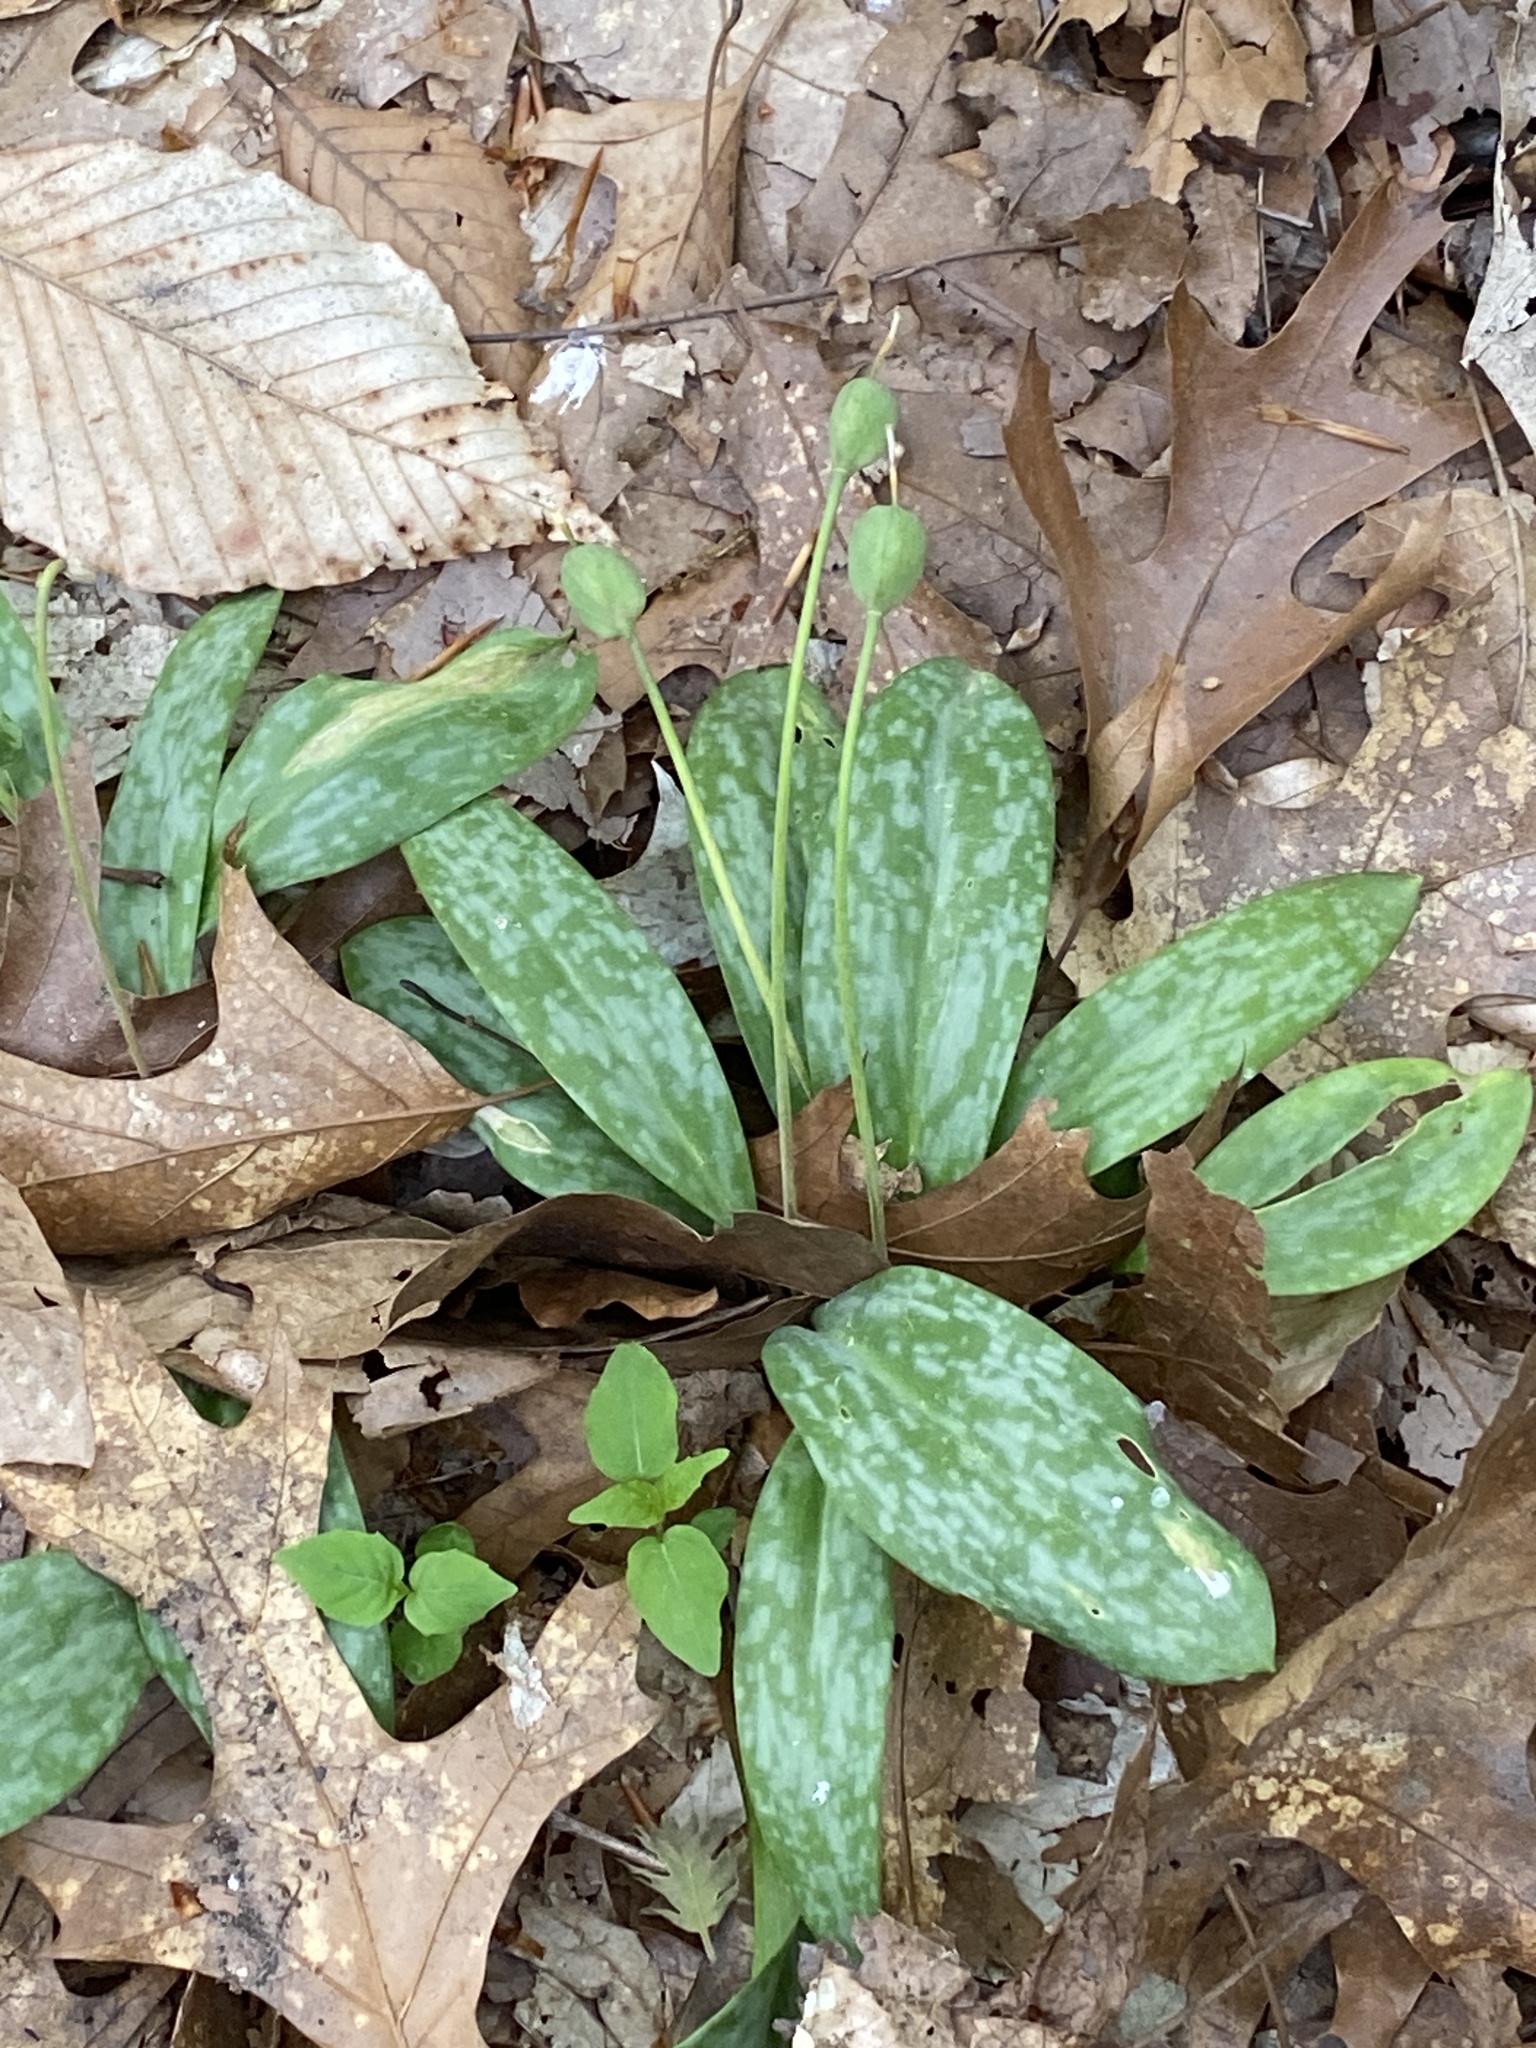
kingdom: Plantae
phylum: Tracheophyta
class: Liliopsida
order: Liliales
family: Liliaceae
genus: Erythronium
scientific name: Erythronium americanum
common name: Yellow adder's-tongue
